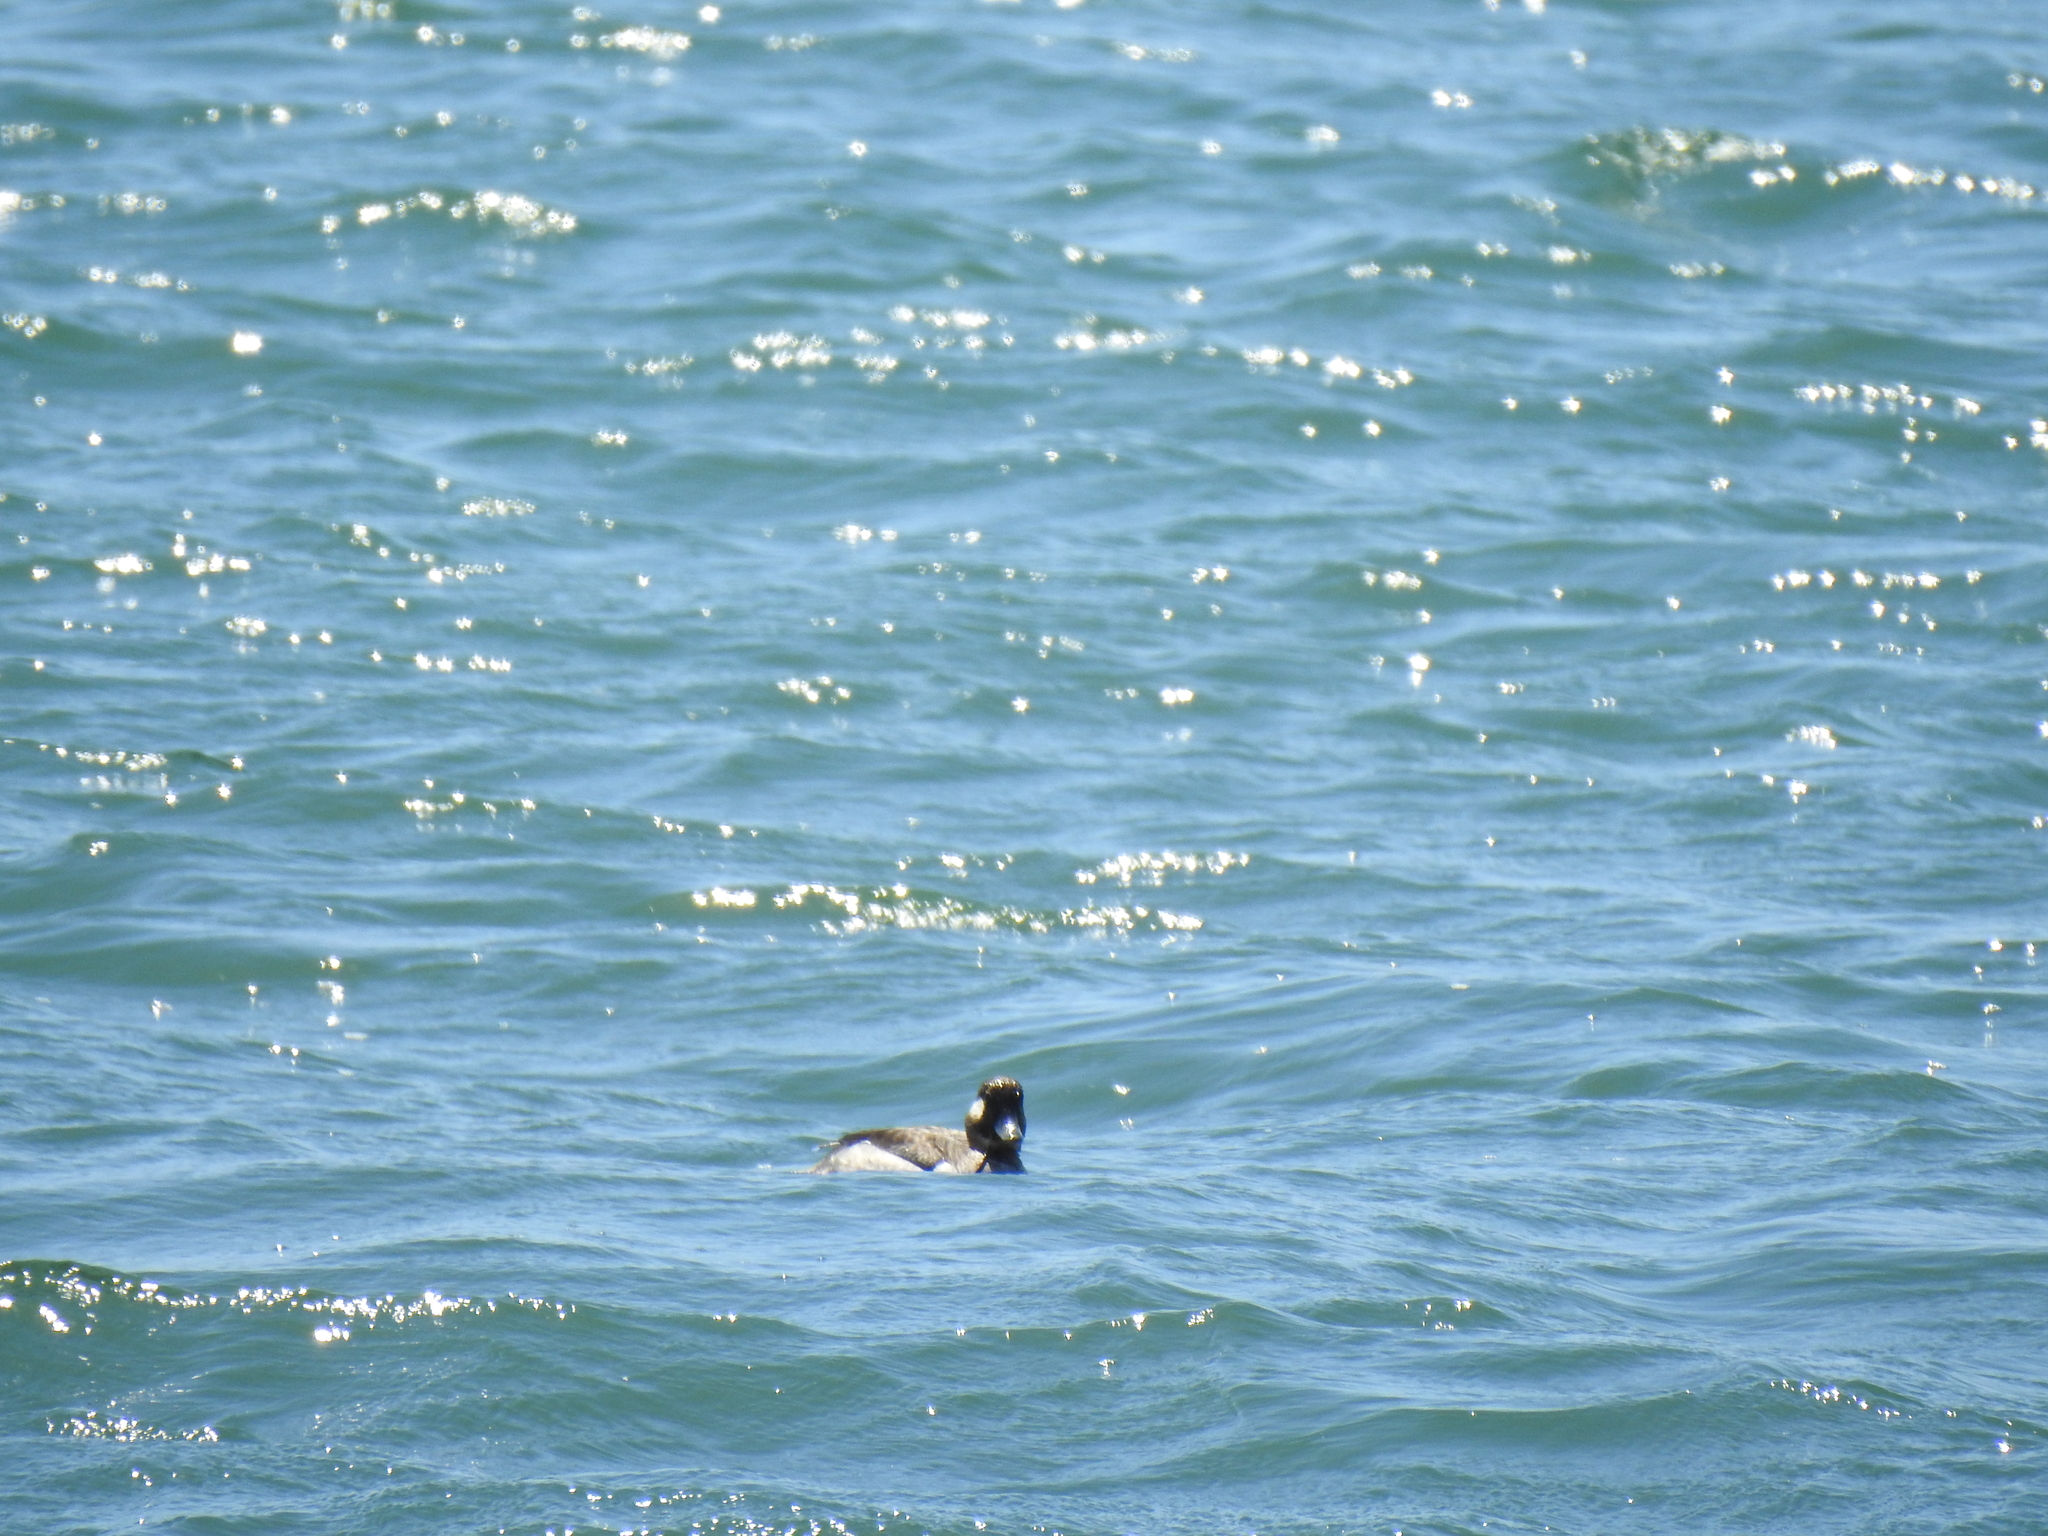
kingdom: Animalia
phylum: Chordata
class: Aves
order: Anseriformes
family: Anatidae
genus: Bucephala
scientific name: Bucephala albeola
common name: Bufflehead
